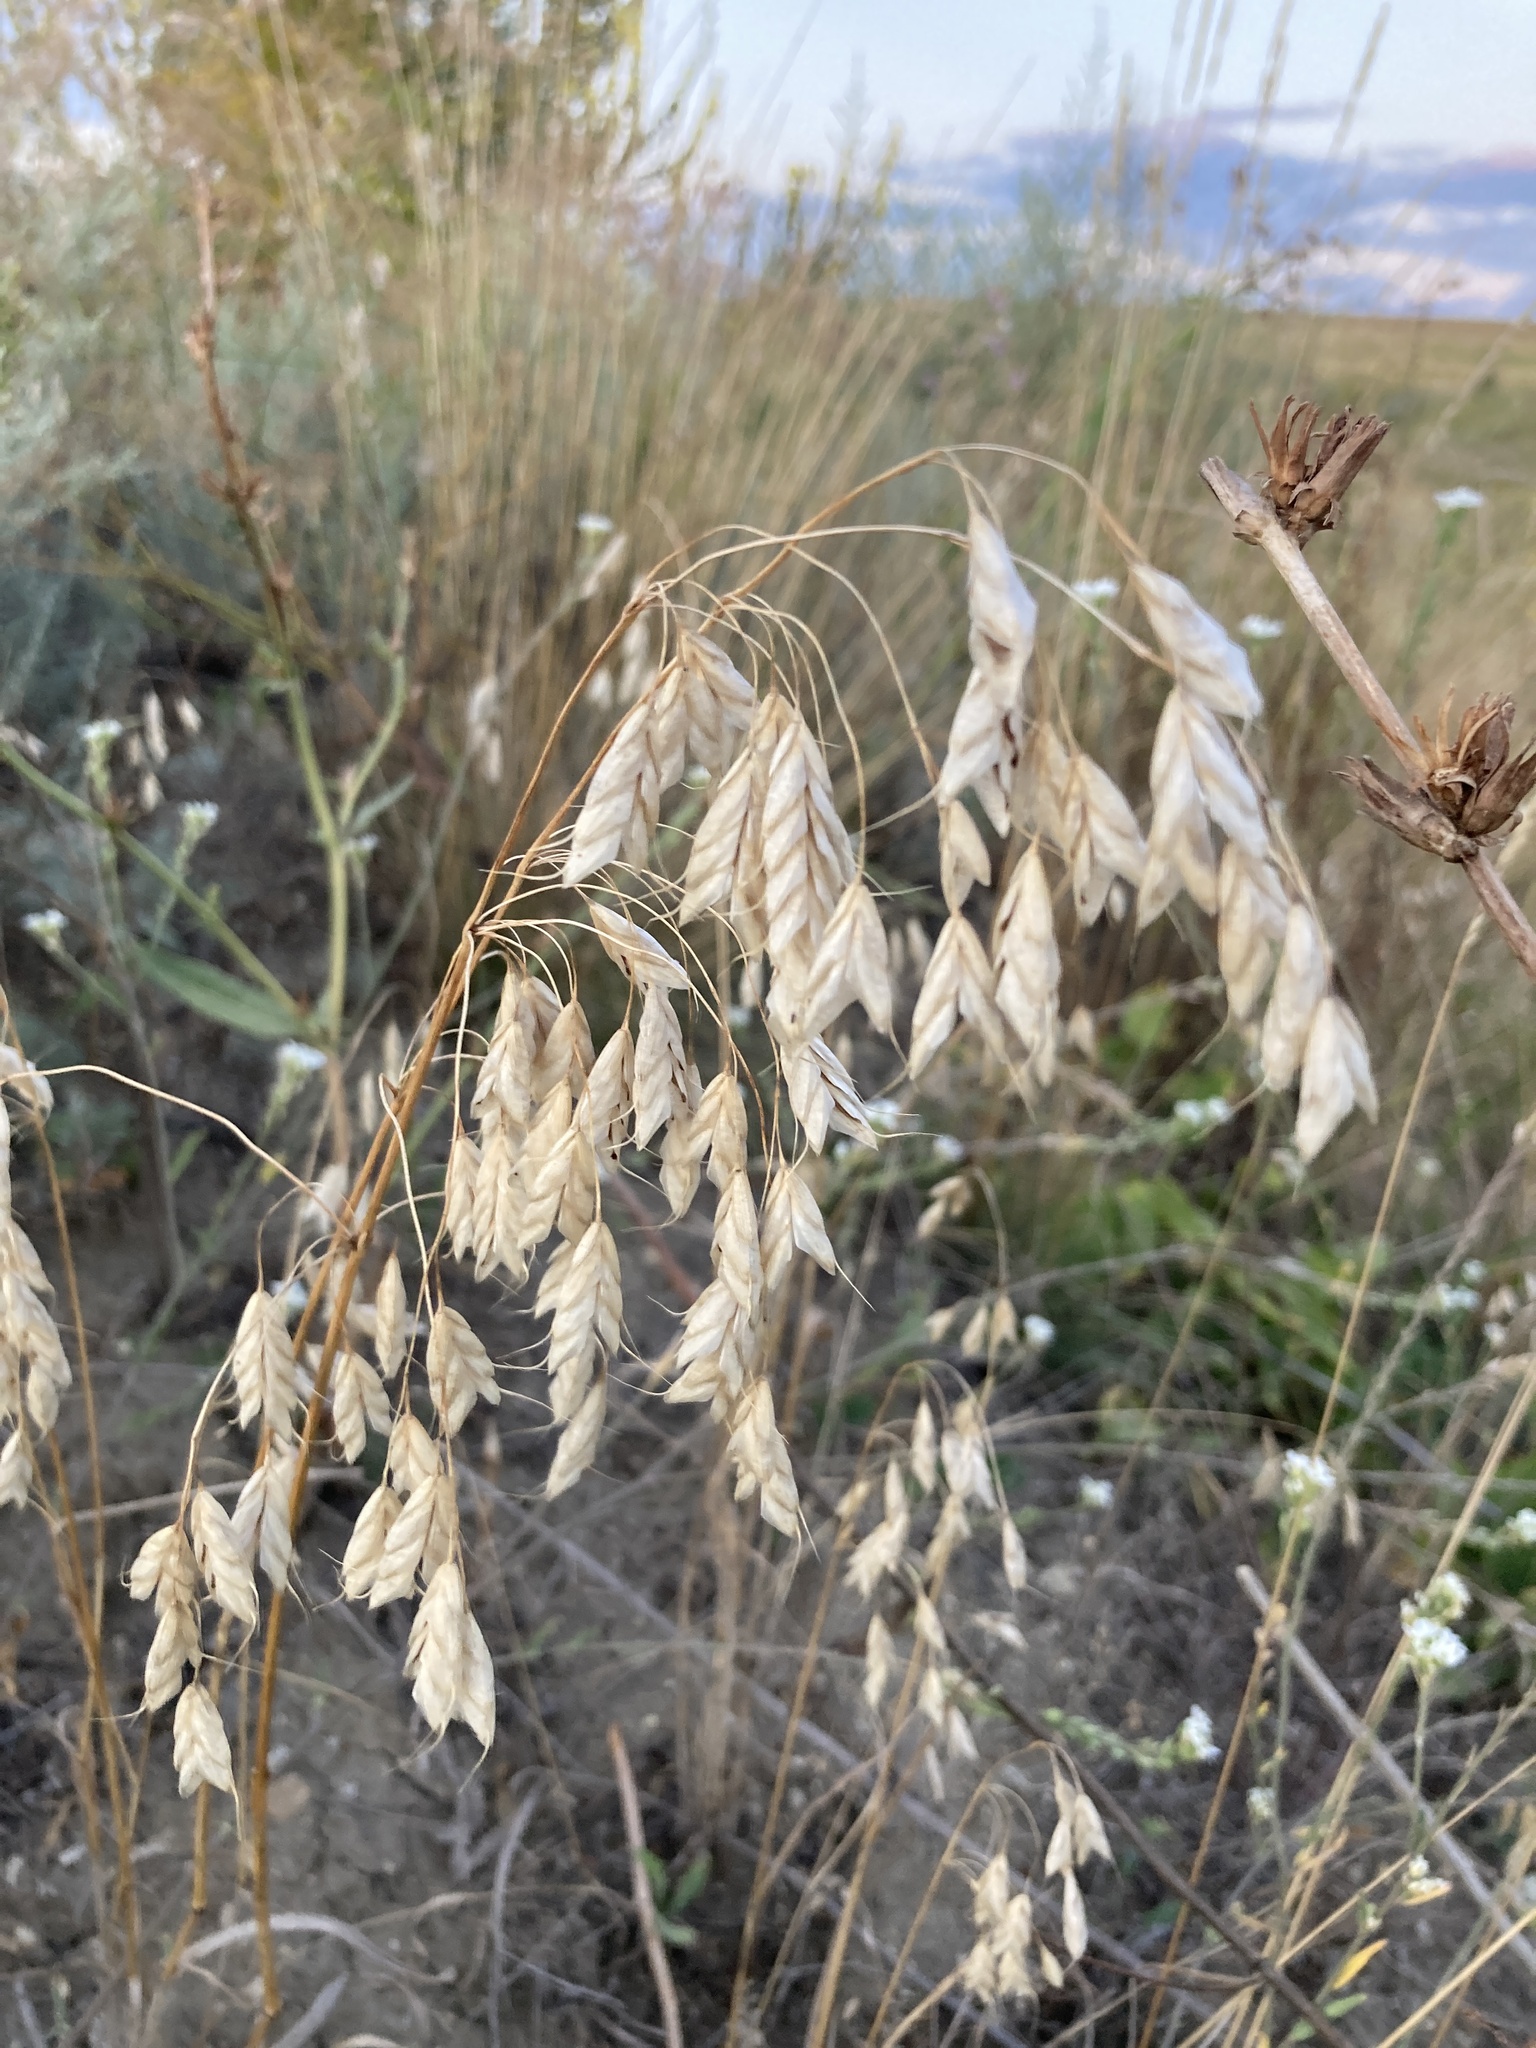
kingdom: Plantae
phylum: Tracheophyta
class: Liliopsida
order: Poales
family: Poaceae
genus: Bromus
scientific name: Bromus squarrosus
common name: Corn brome
